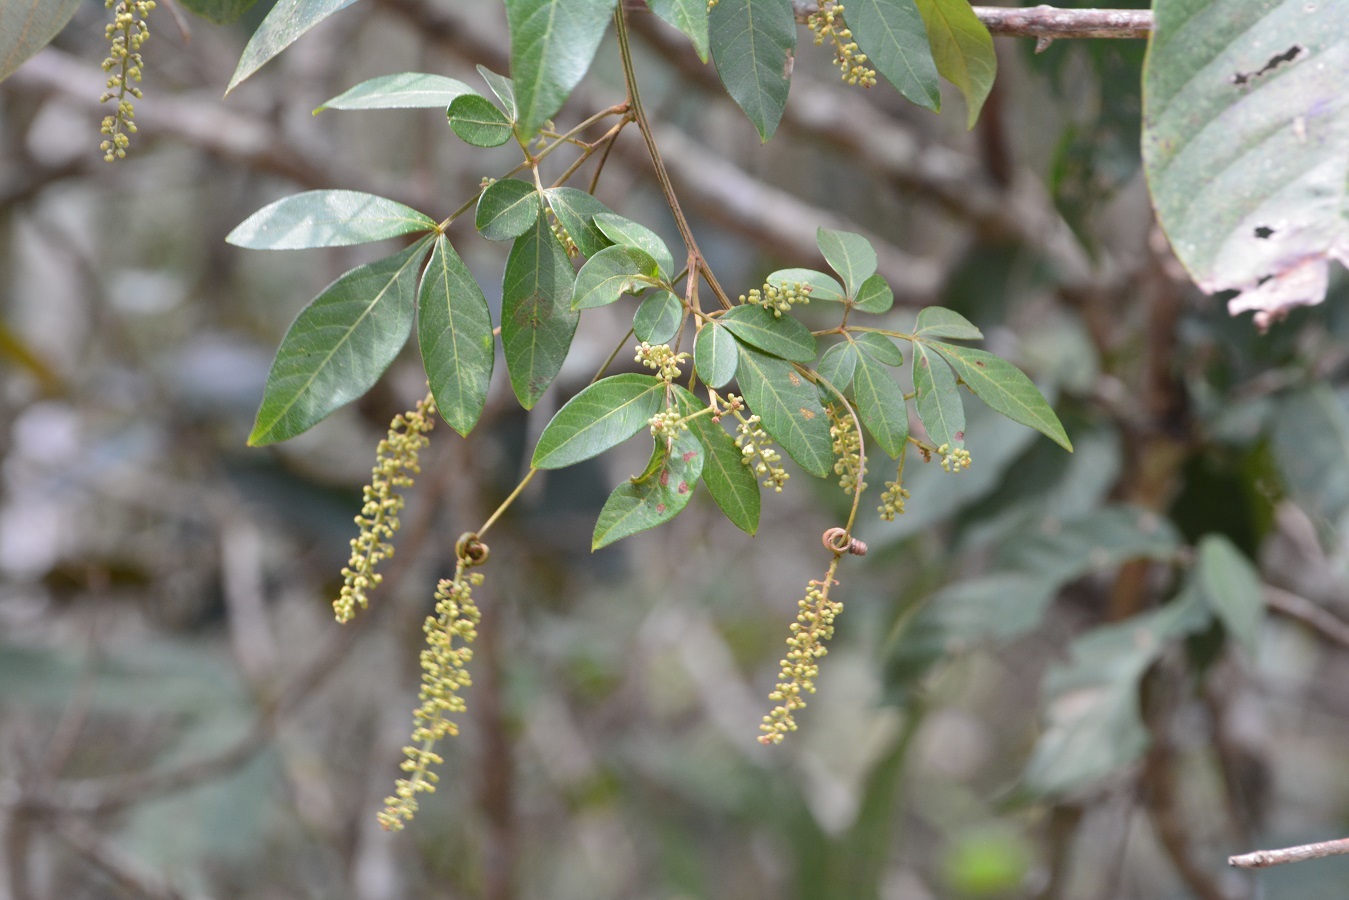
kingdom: Plantae
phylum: Tracheophyta
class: Magnoliopsida
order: Sapindales
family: Sapindaceae
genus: Paullinia
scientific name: Paullinia pinnata
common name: Barbasco
